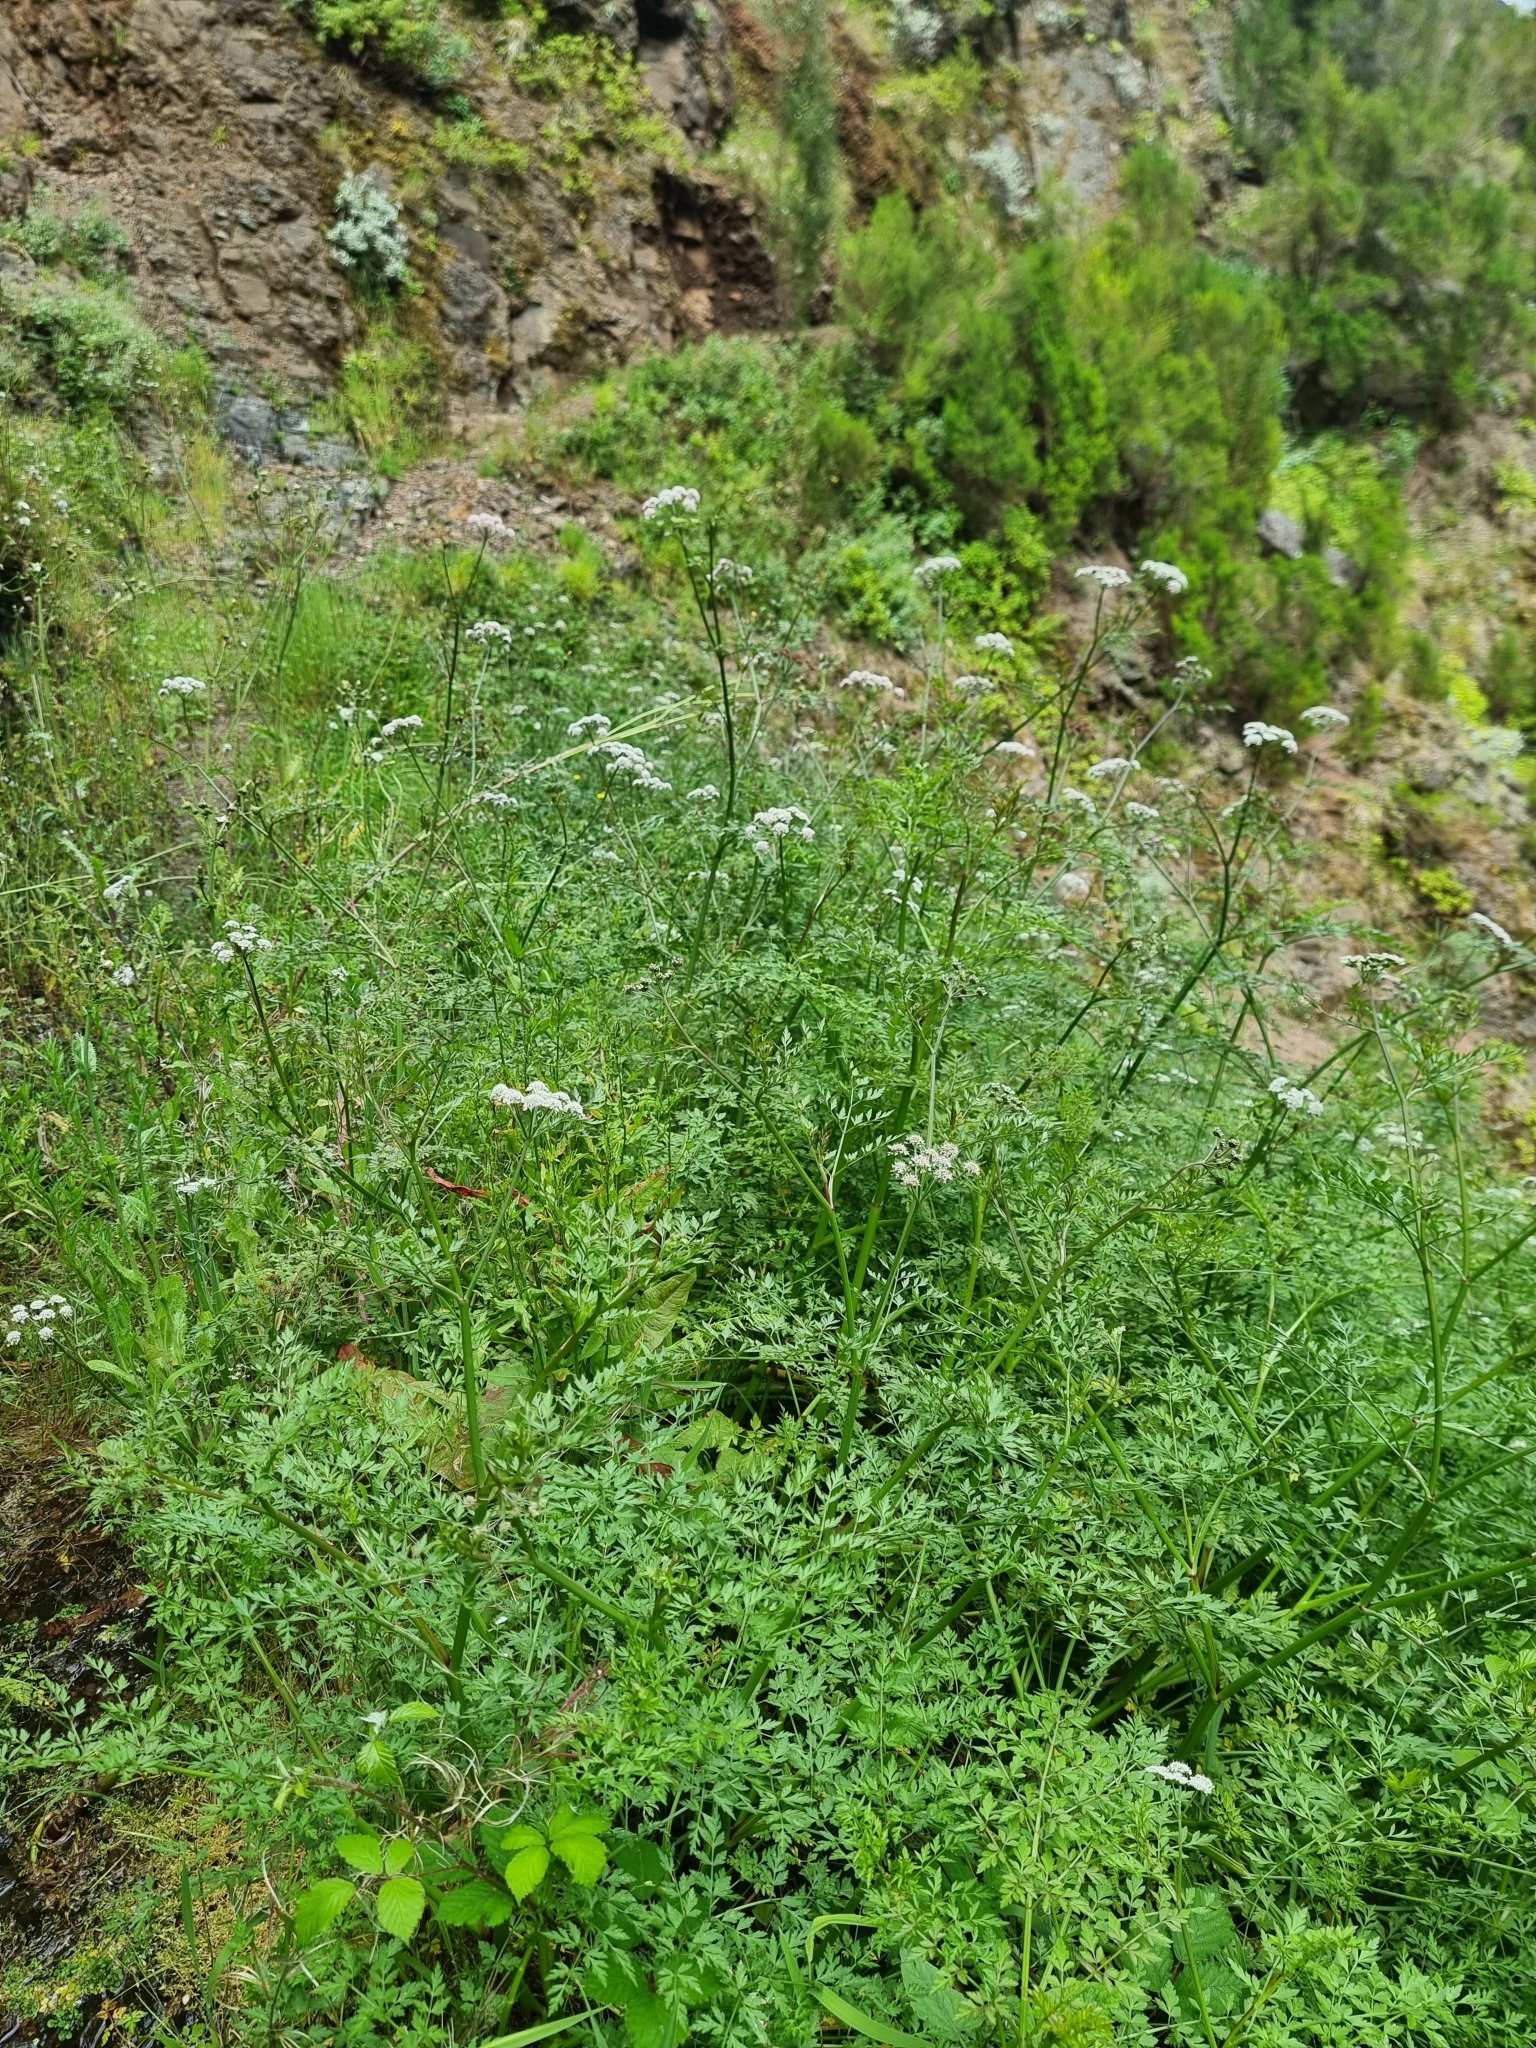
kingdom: Plantae
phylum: Tracheophyta
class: Magnoliopsida
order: Apiales
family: Apiaceae
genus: Oenanthe
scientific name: Oenanthe divaricata
